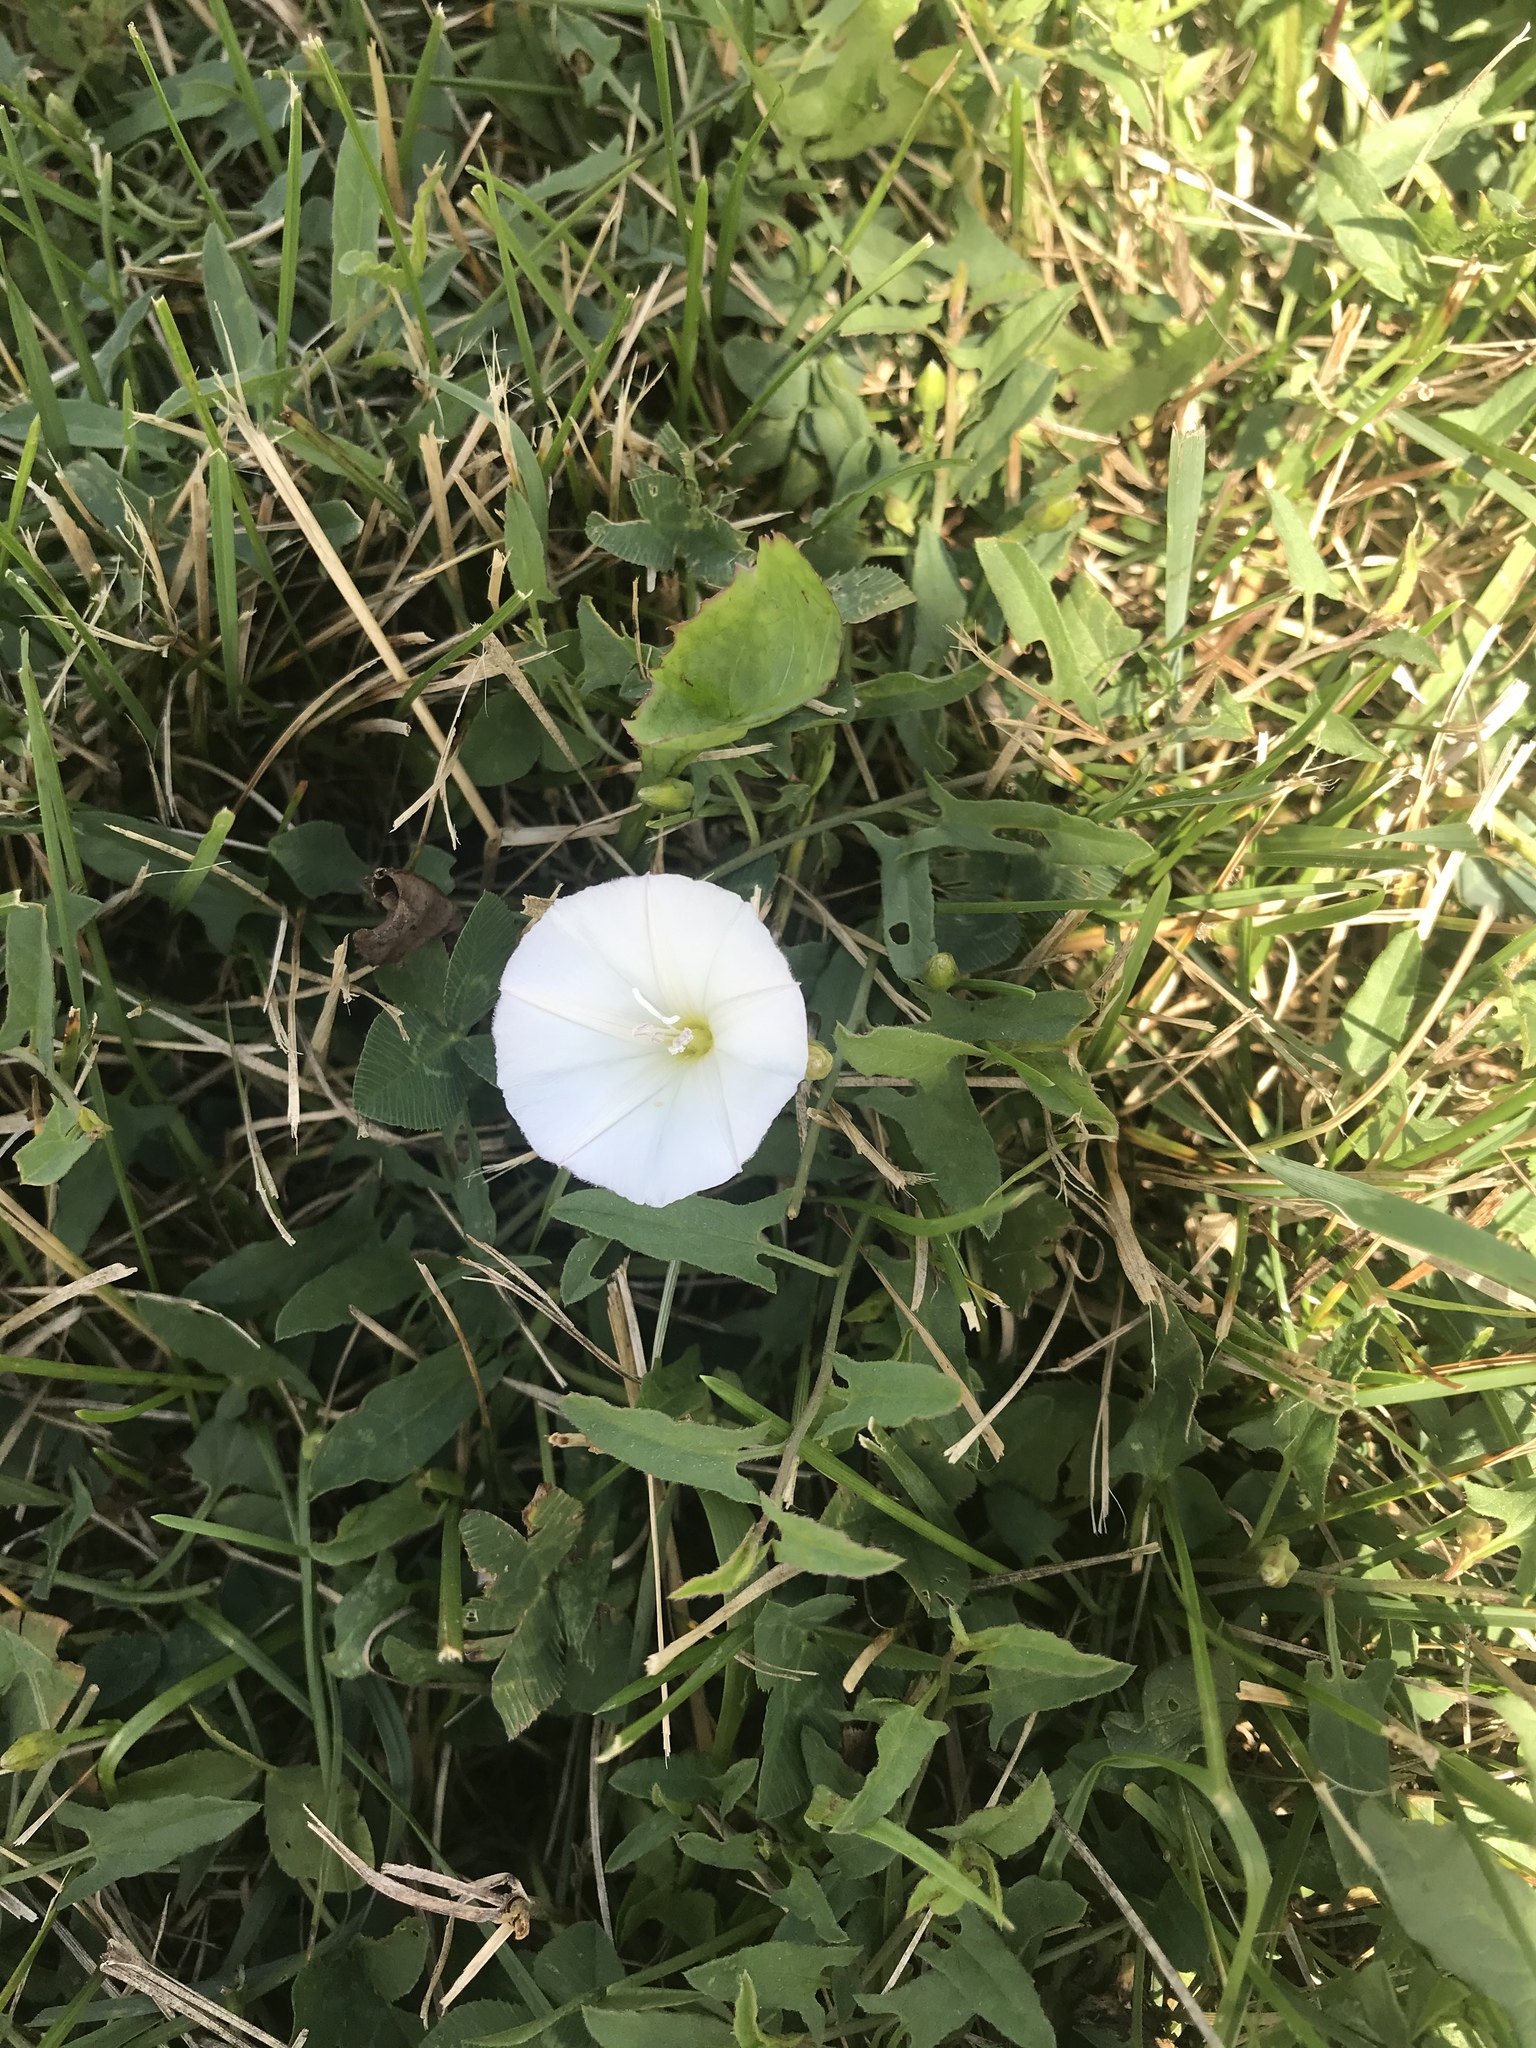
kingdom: Plantae
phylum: Tracheophyta
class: Magnoliopsida
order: Solanales
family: Convolvulaceae
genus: Convolvulus
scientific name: Convolvulus arvensis
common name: Field bindweed
